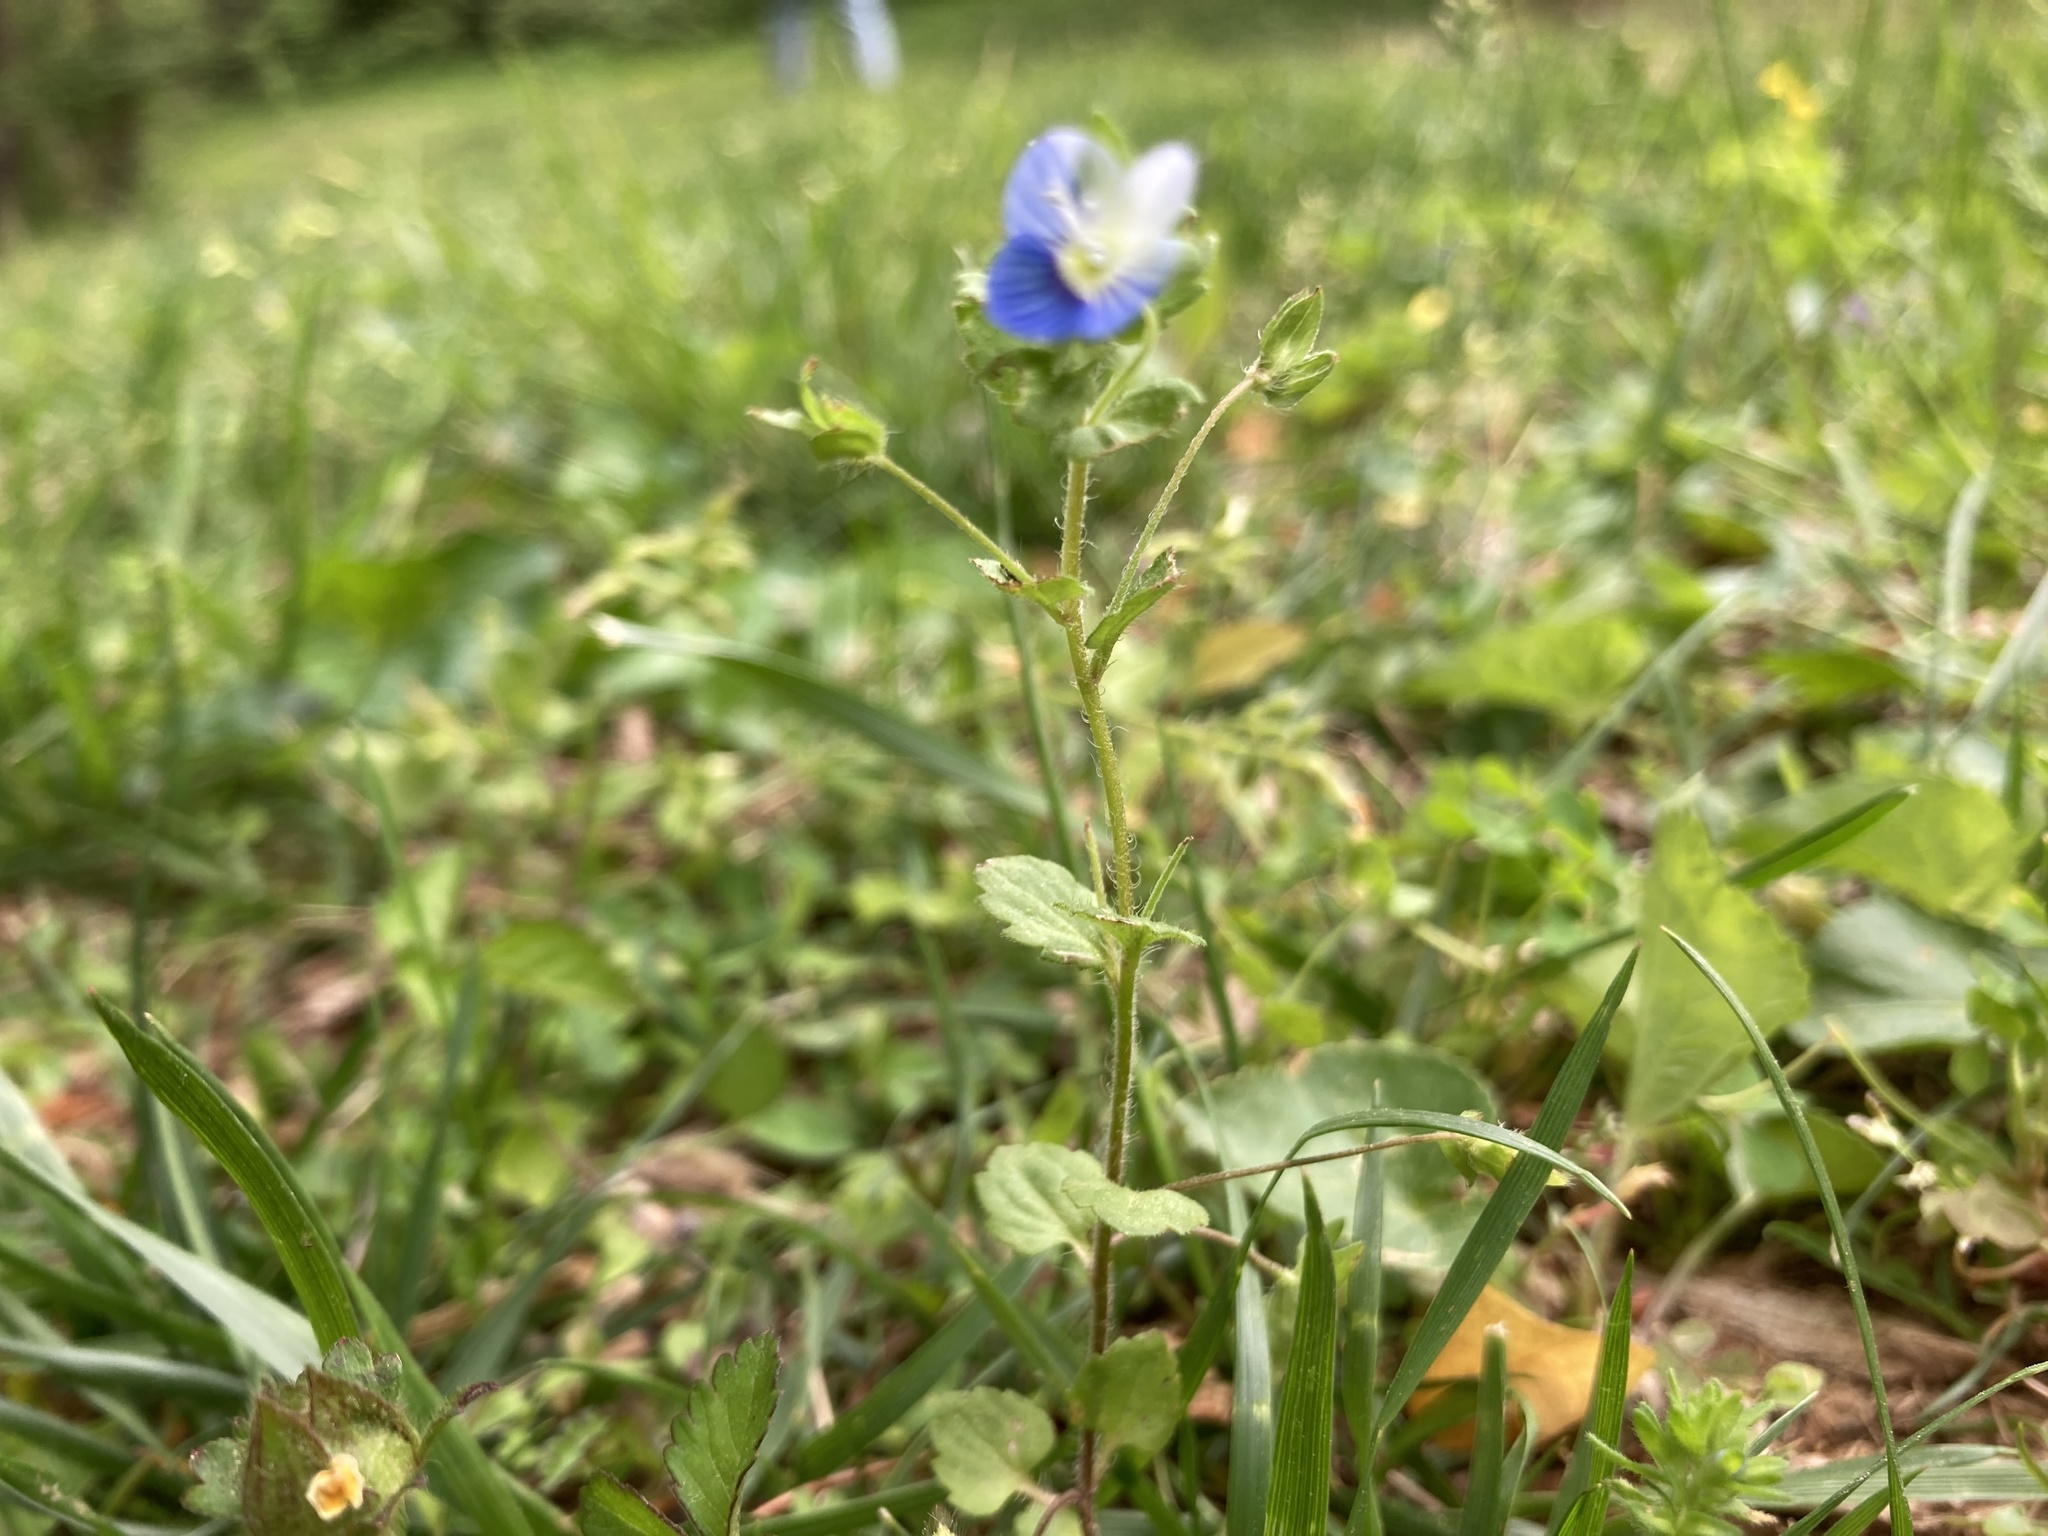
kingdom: Plantae
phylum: Tracheophyta
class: Magnoliopsida
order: Lamiales
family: Plantaginaceae
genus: Veronica
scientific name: Veronica persica
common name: Common field-speedwell
